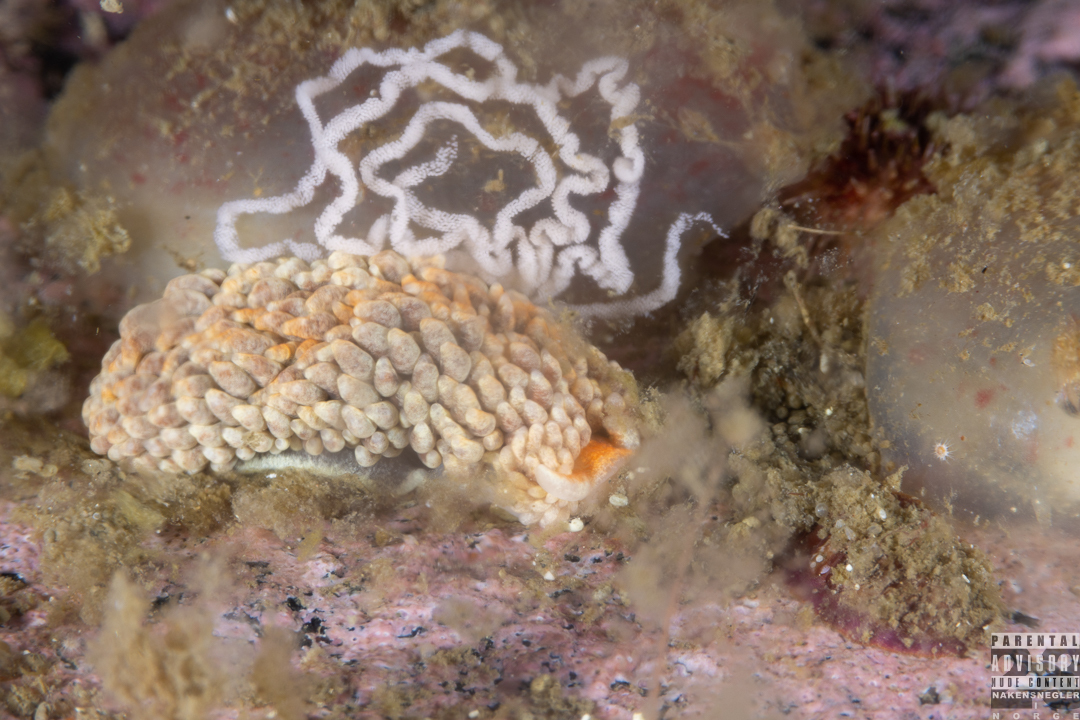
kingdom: Animalia
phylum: Mollusca
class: Gastropoda
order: Nudibranchia
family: Aeolidiidae
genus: Aeolidiella
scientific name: Aeolidiella glauca
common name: Orange-brown aeolid
